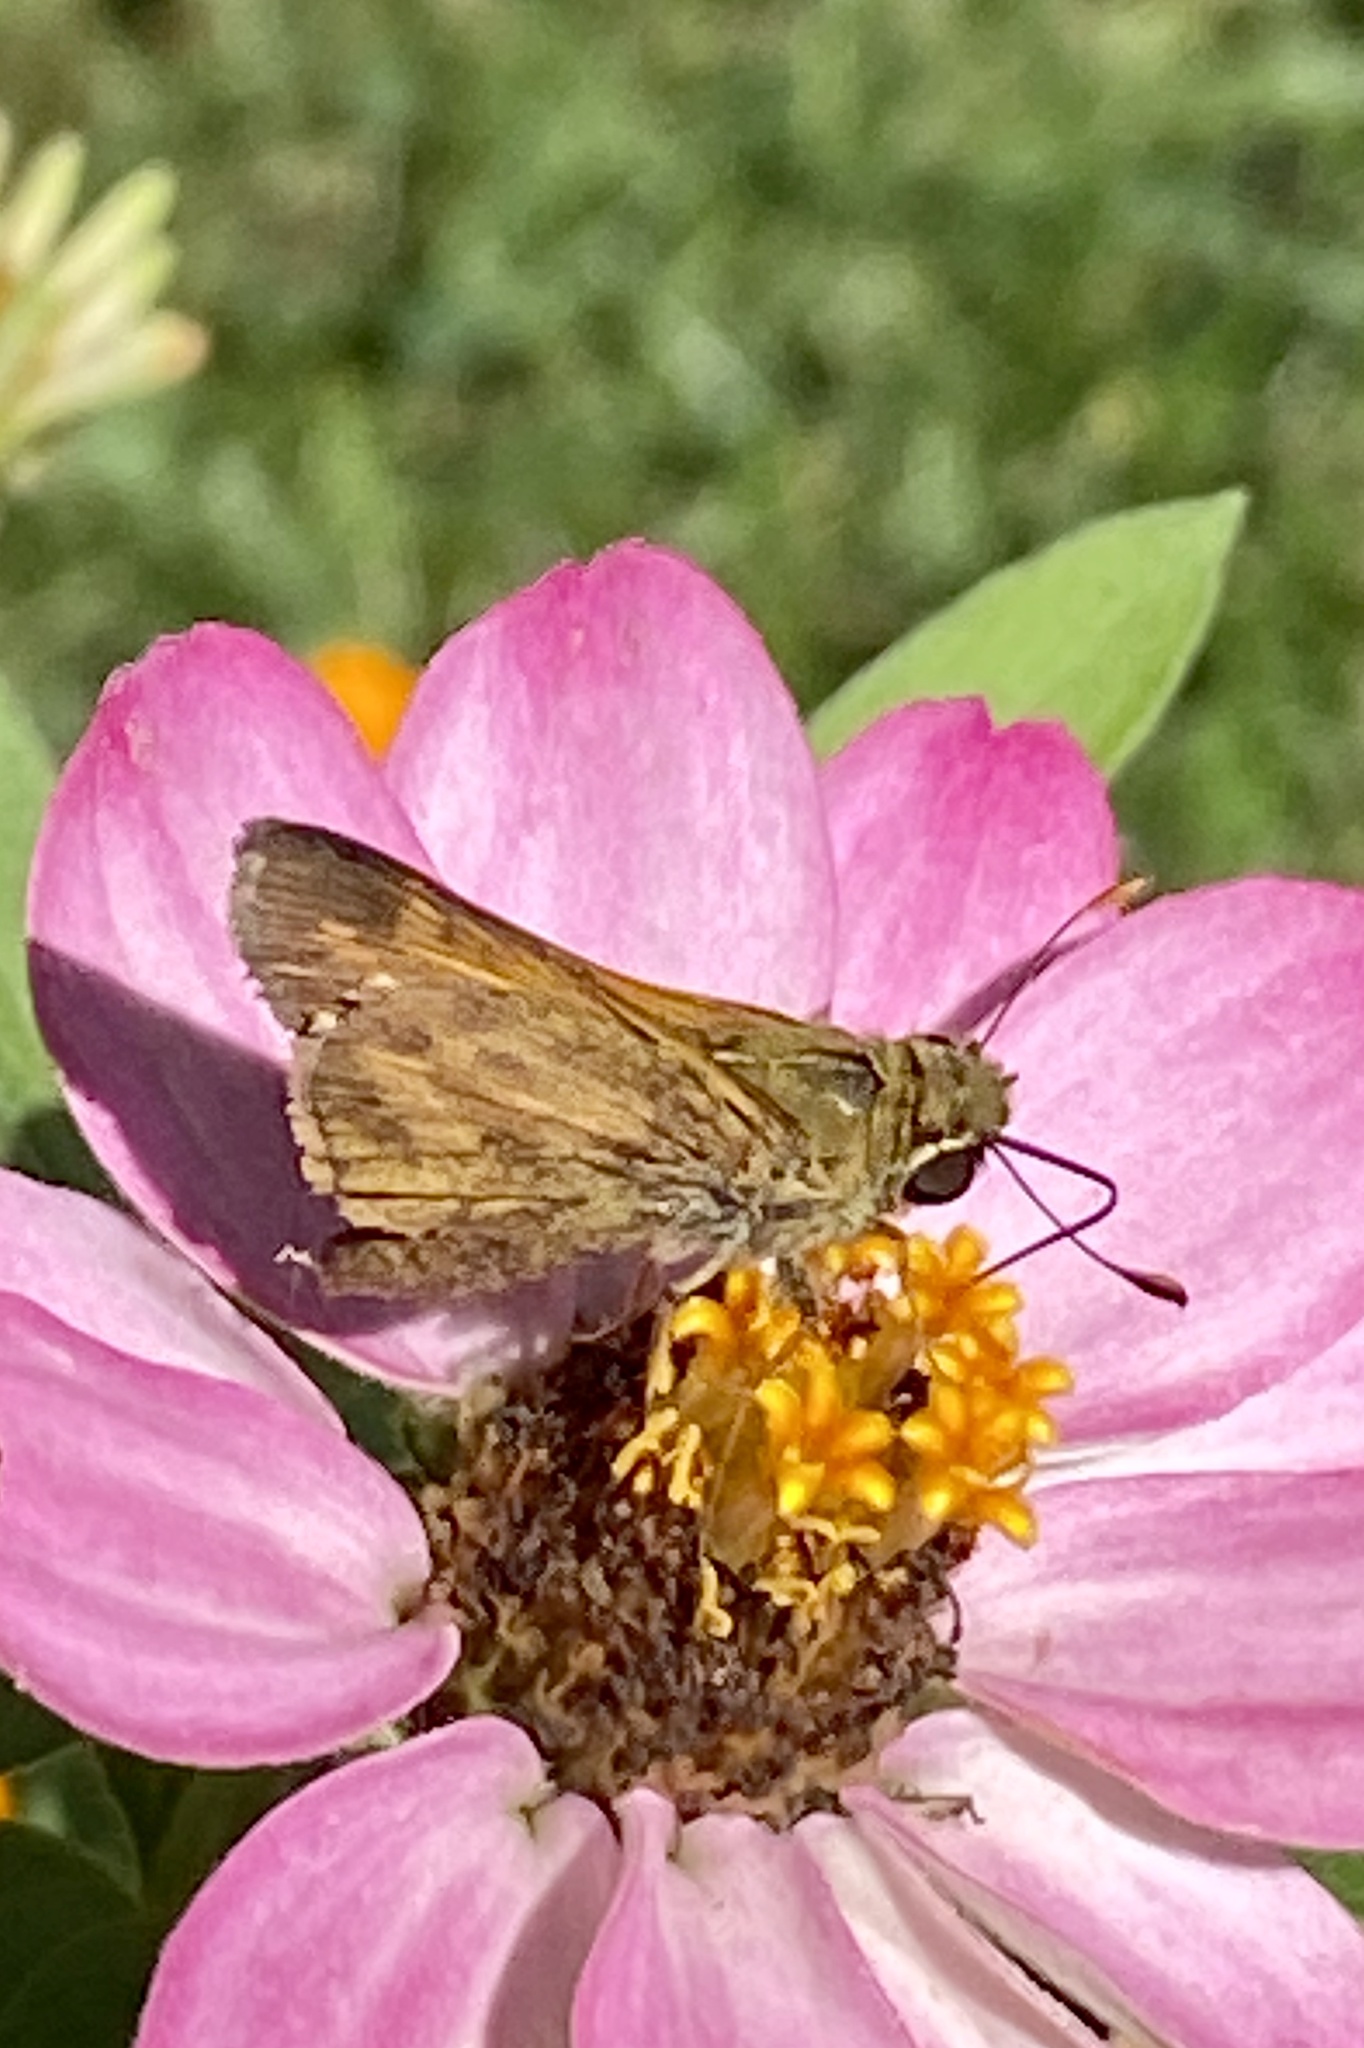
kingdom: Animalia
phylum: Arthropoda
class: Insecta
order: Lepidoptera
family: Hesperiidae
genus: Atalopedes
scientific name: Atalopedes
